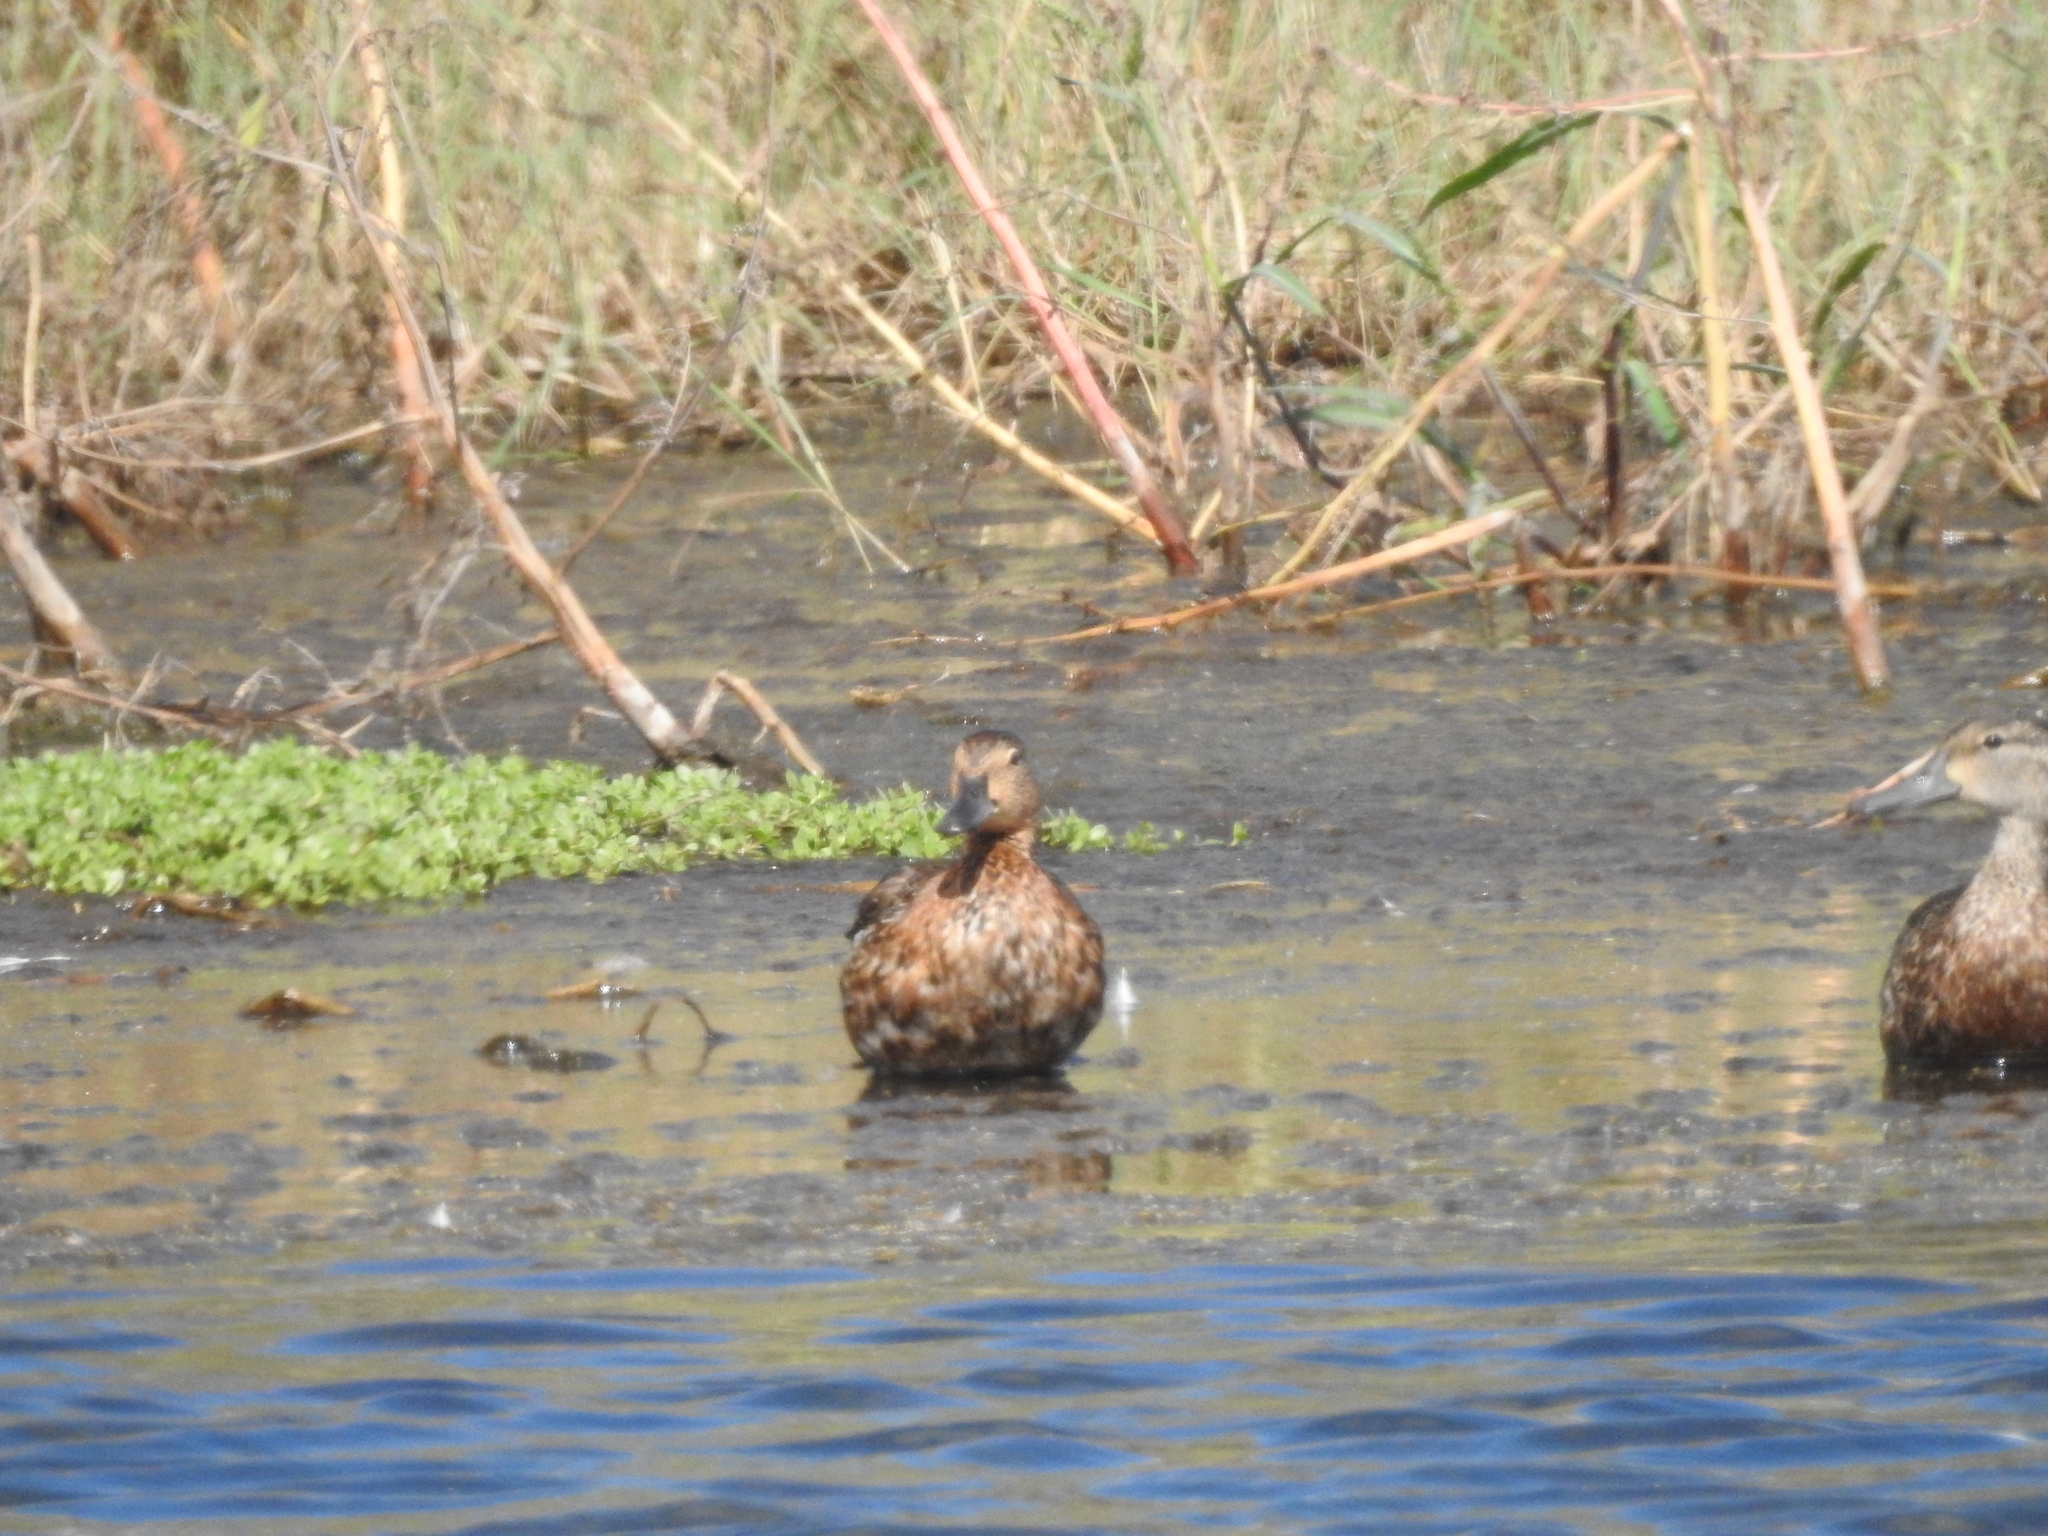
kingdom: Animalia
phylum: Chordata
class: Aves
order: Anseriformes
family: Anatidae
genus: Spatula
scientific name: Spatula cyanoptera
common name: Cinnamon teal
